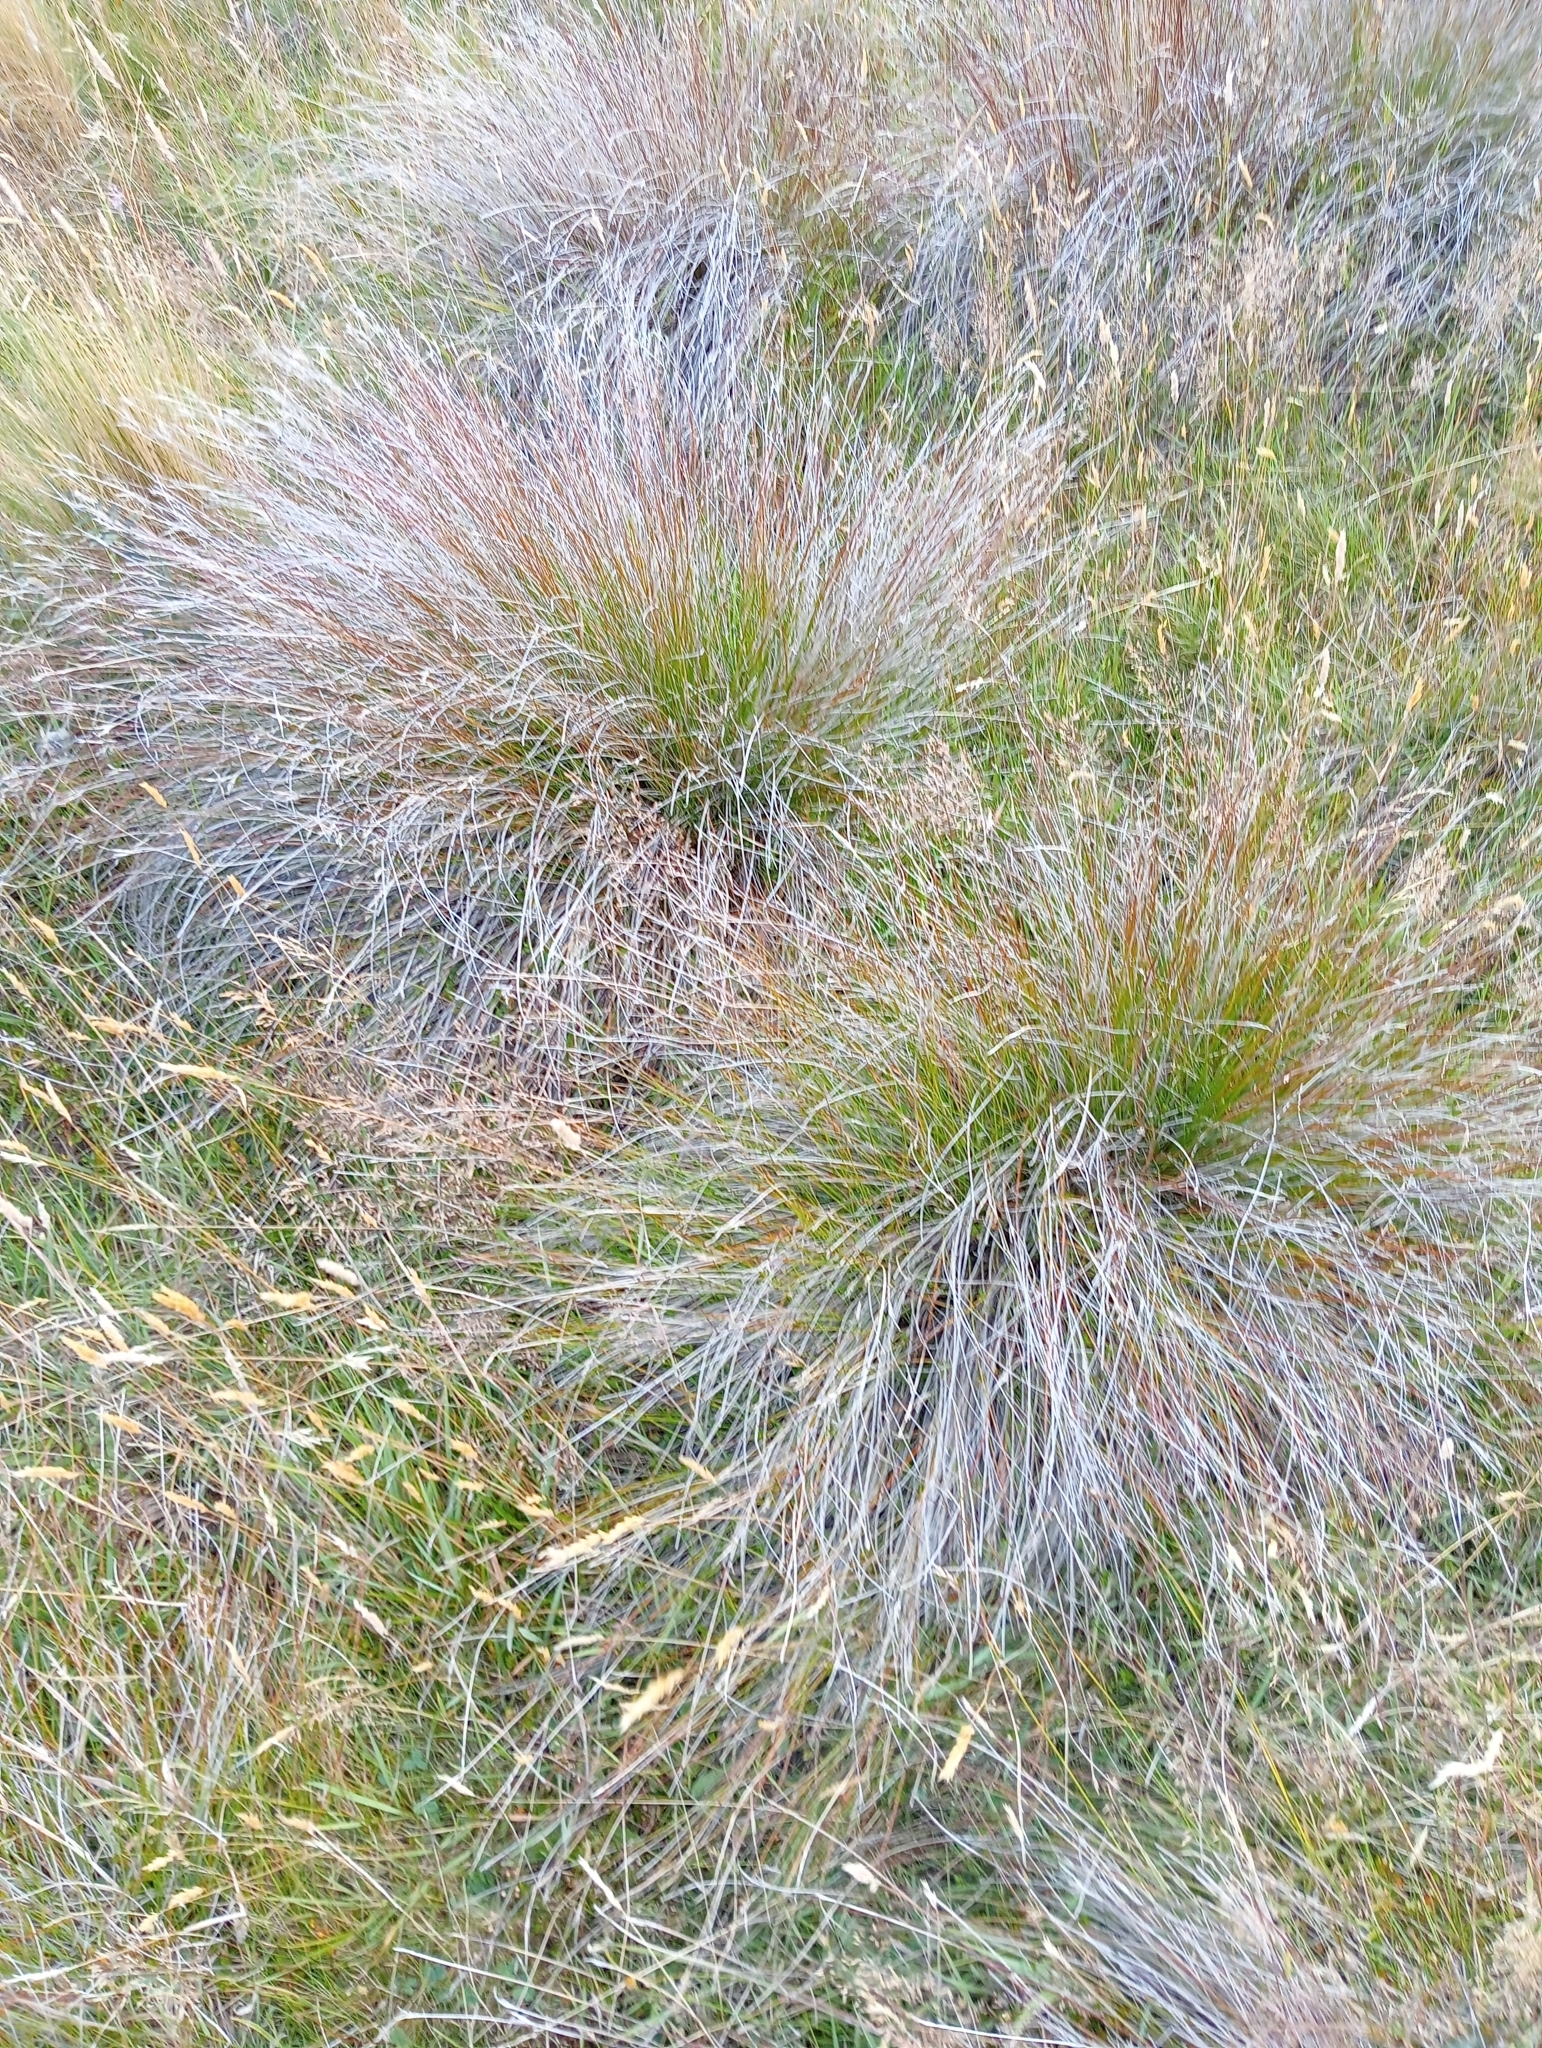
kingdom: Plantae
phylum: Tracheophyta
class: Liliopsida
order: Poales
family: Cyperaceae
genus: Schoenus
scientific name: Schoenus pauciflorus
